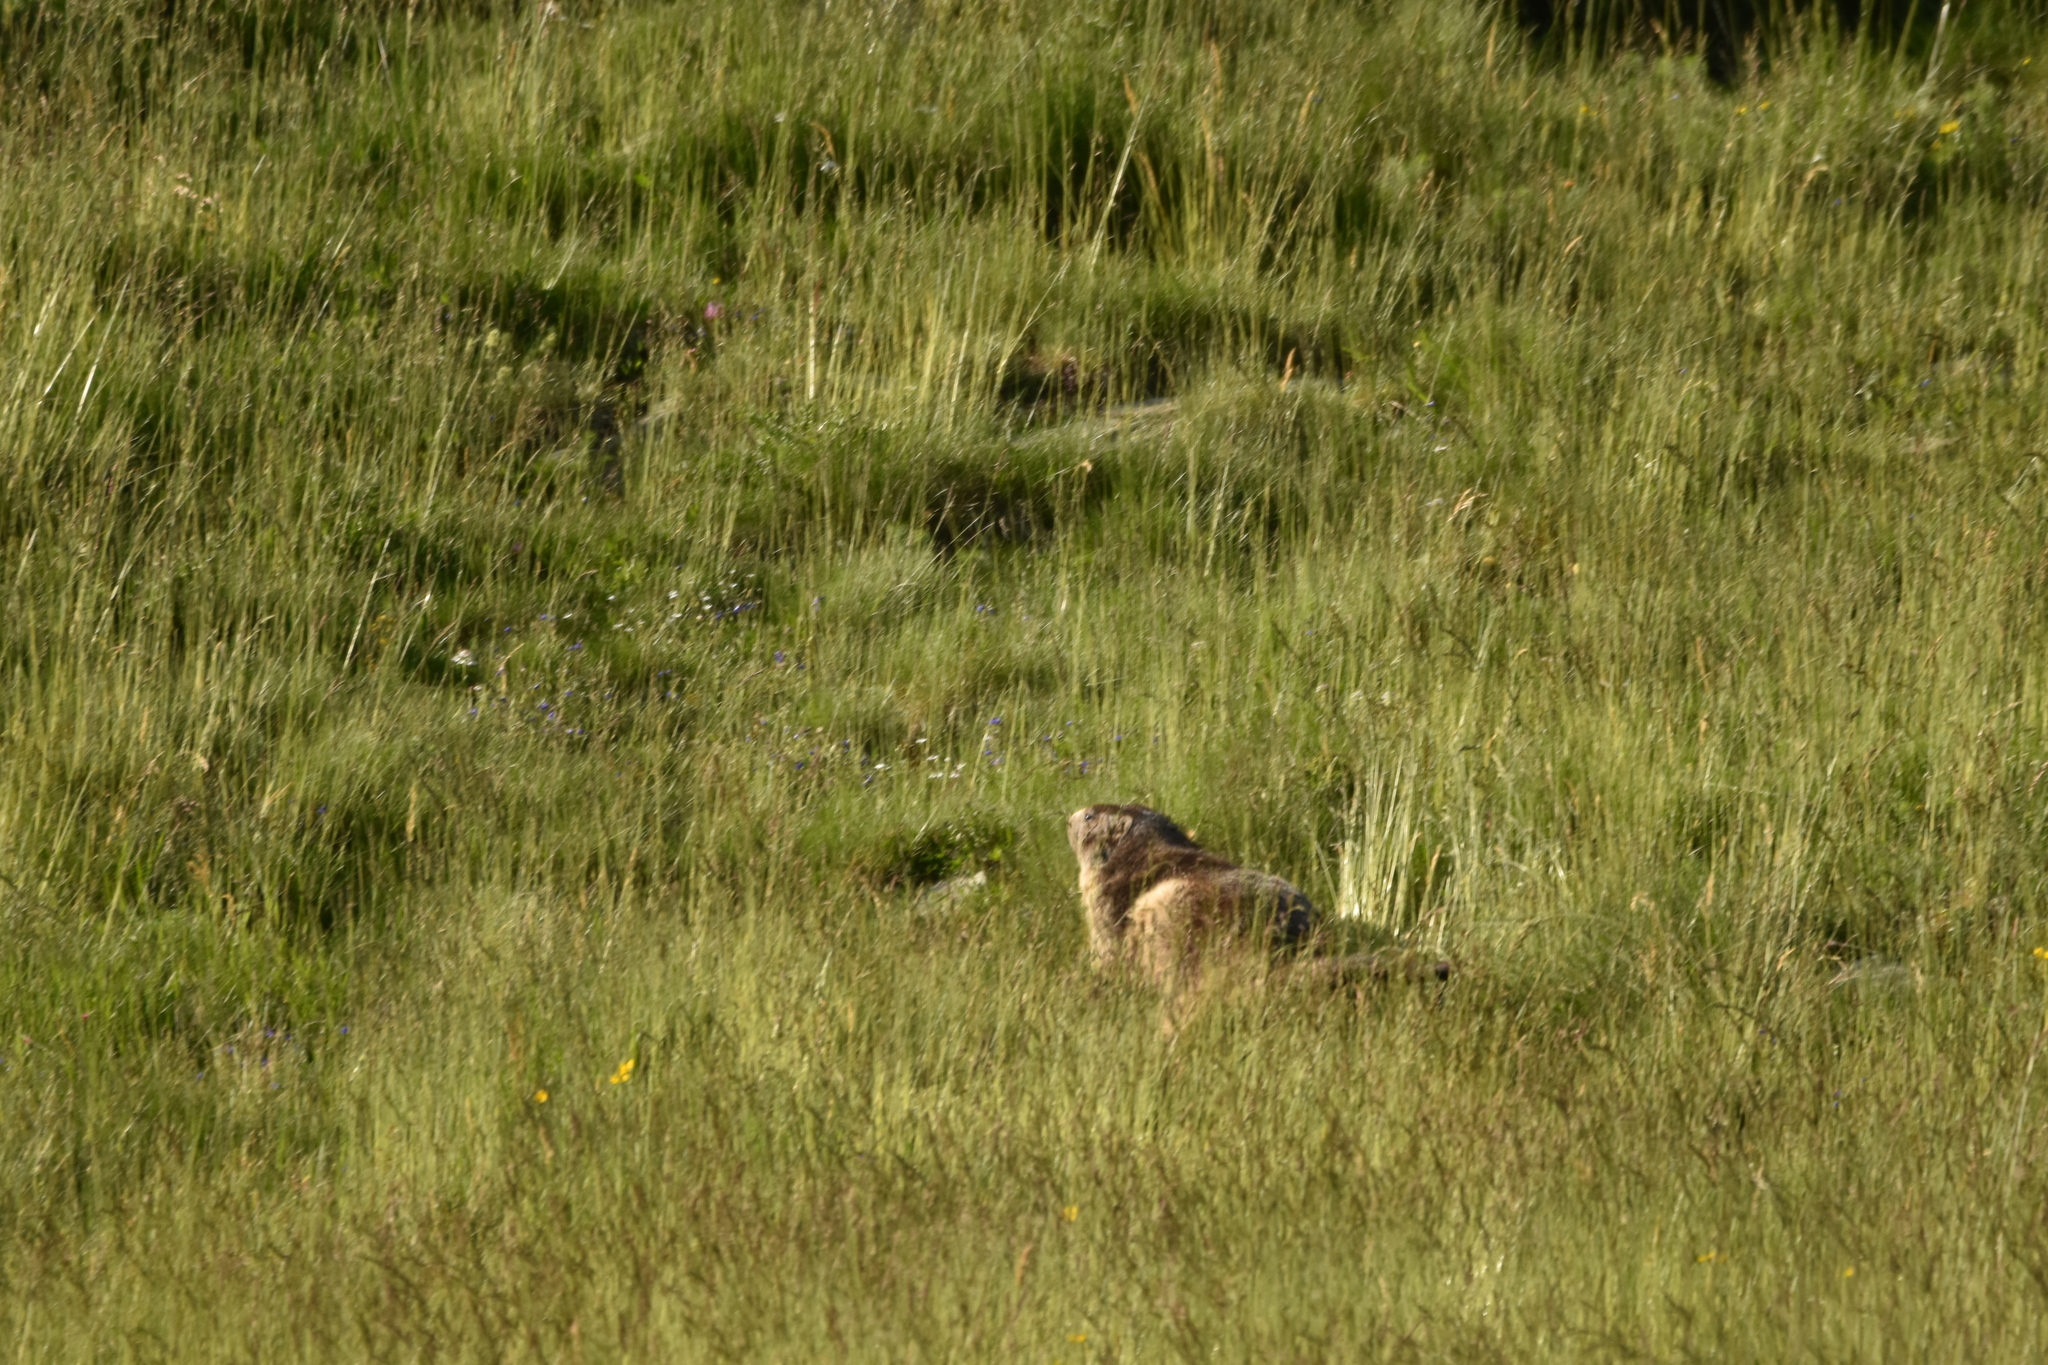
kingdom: Animalia
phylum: Chordata
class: Mammalia
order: Rodentia
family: Sciuridae
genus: Marmota
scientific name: Marmota marmota
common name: Alpine marmot
